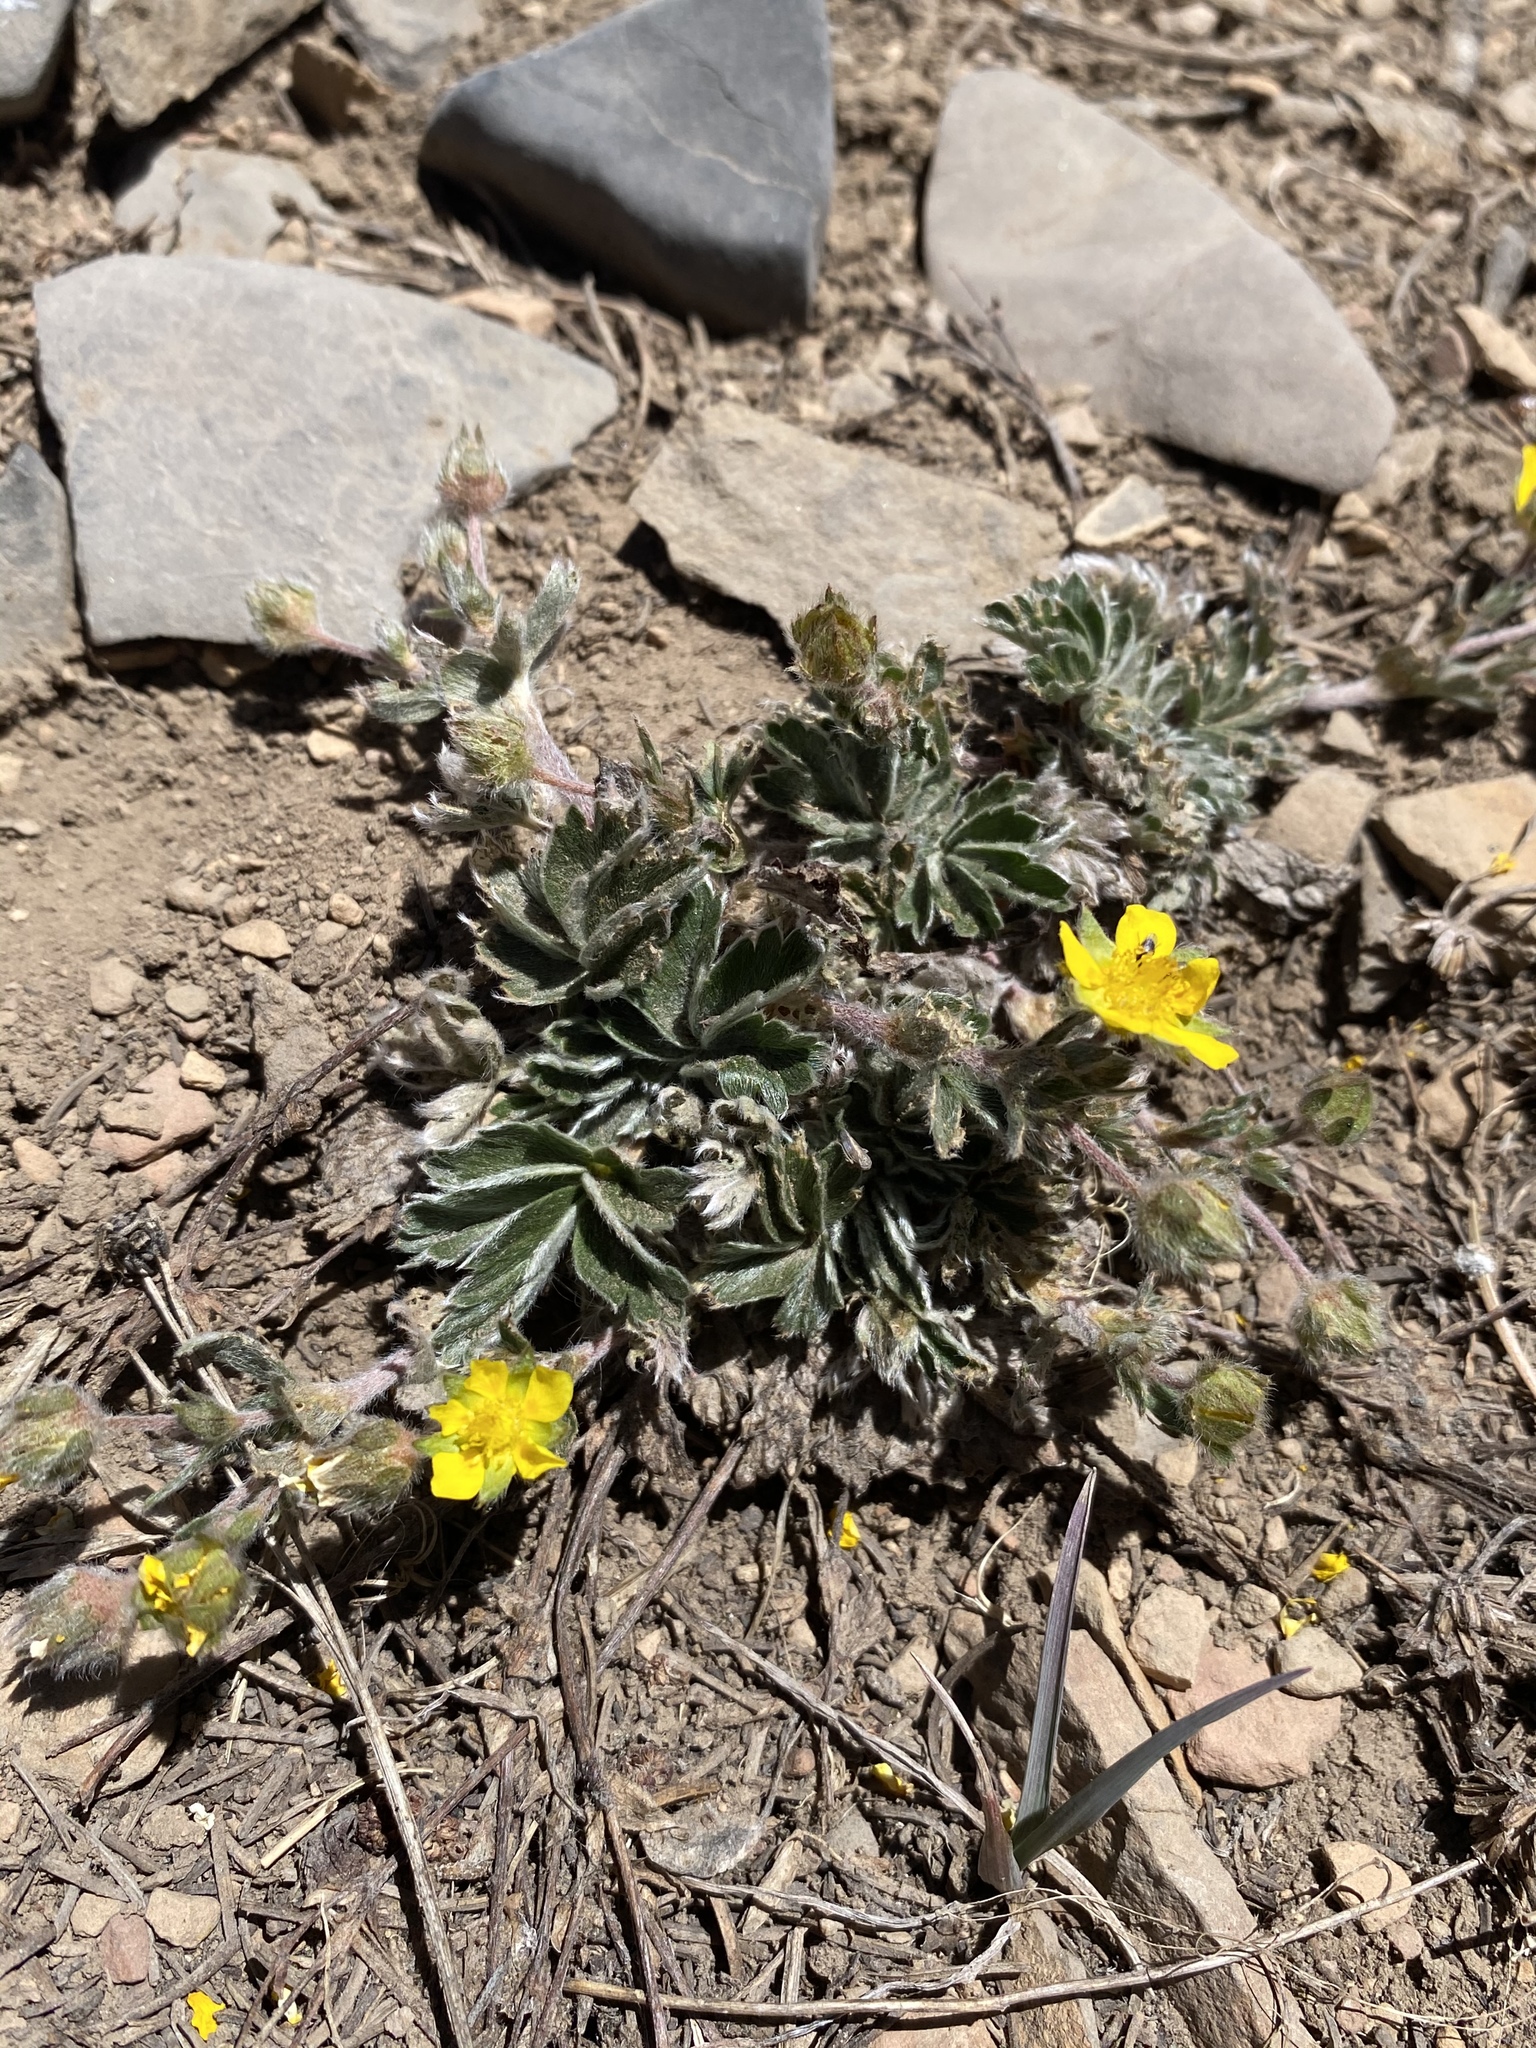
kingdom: Plantae
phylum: Tracheophyta
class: Magnoliopsida
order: Rosales
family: Rosaceae
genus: Potentilla
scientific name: Potentilla concinna
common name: Early cinquefoil
